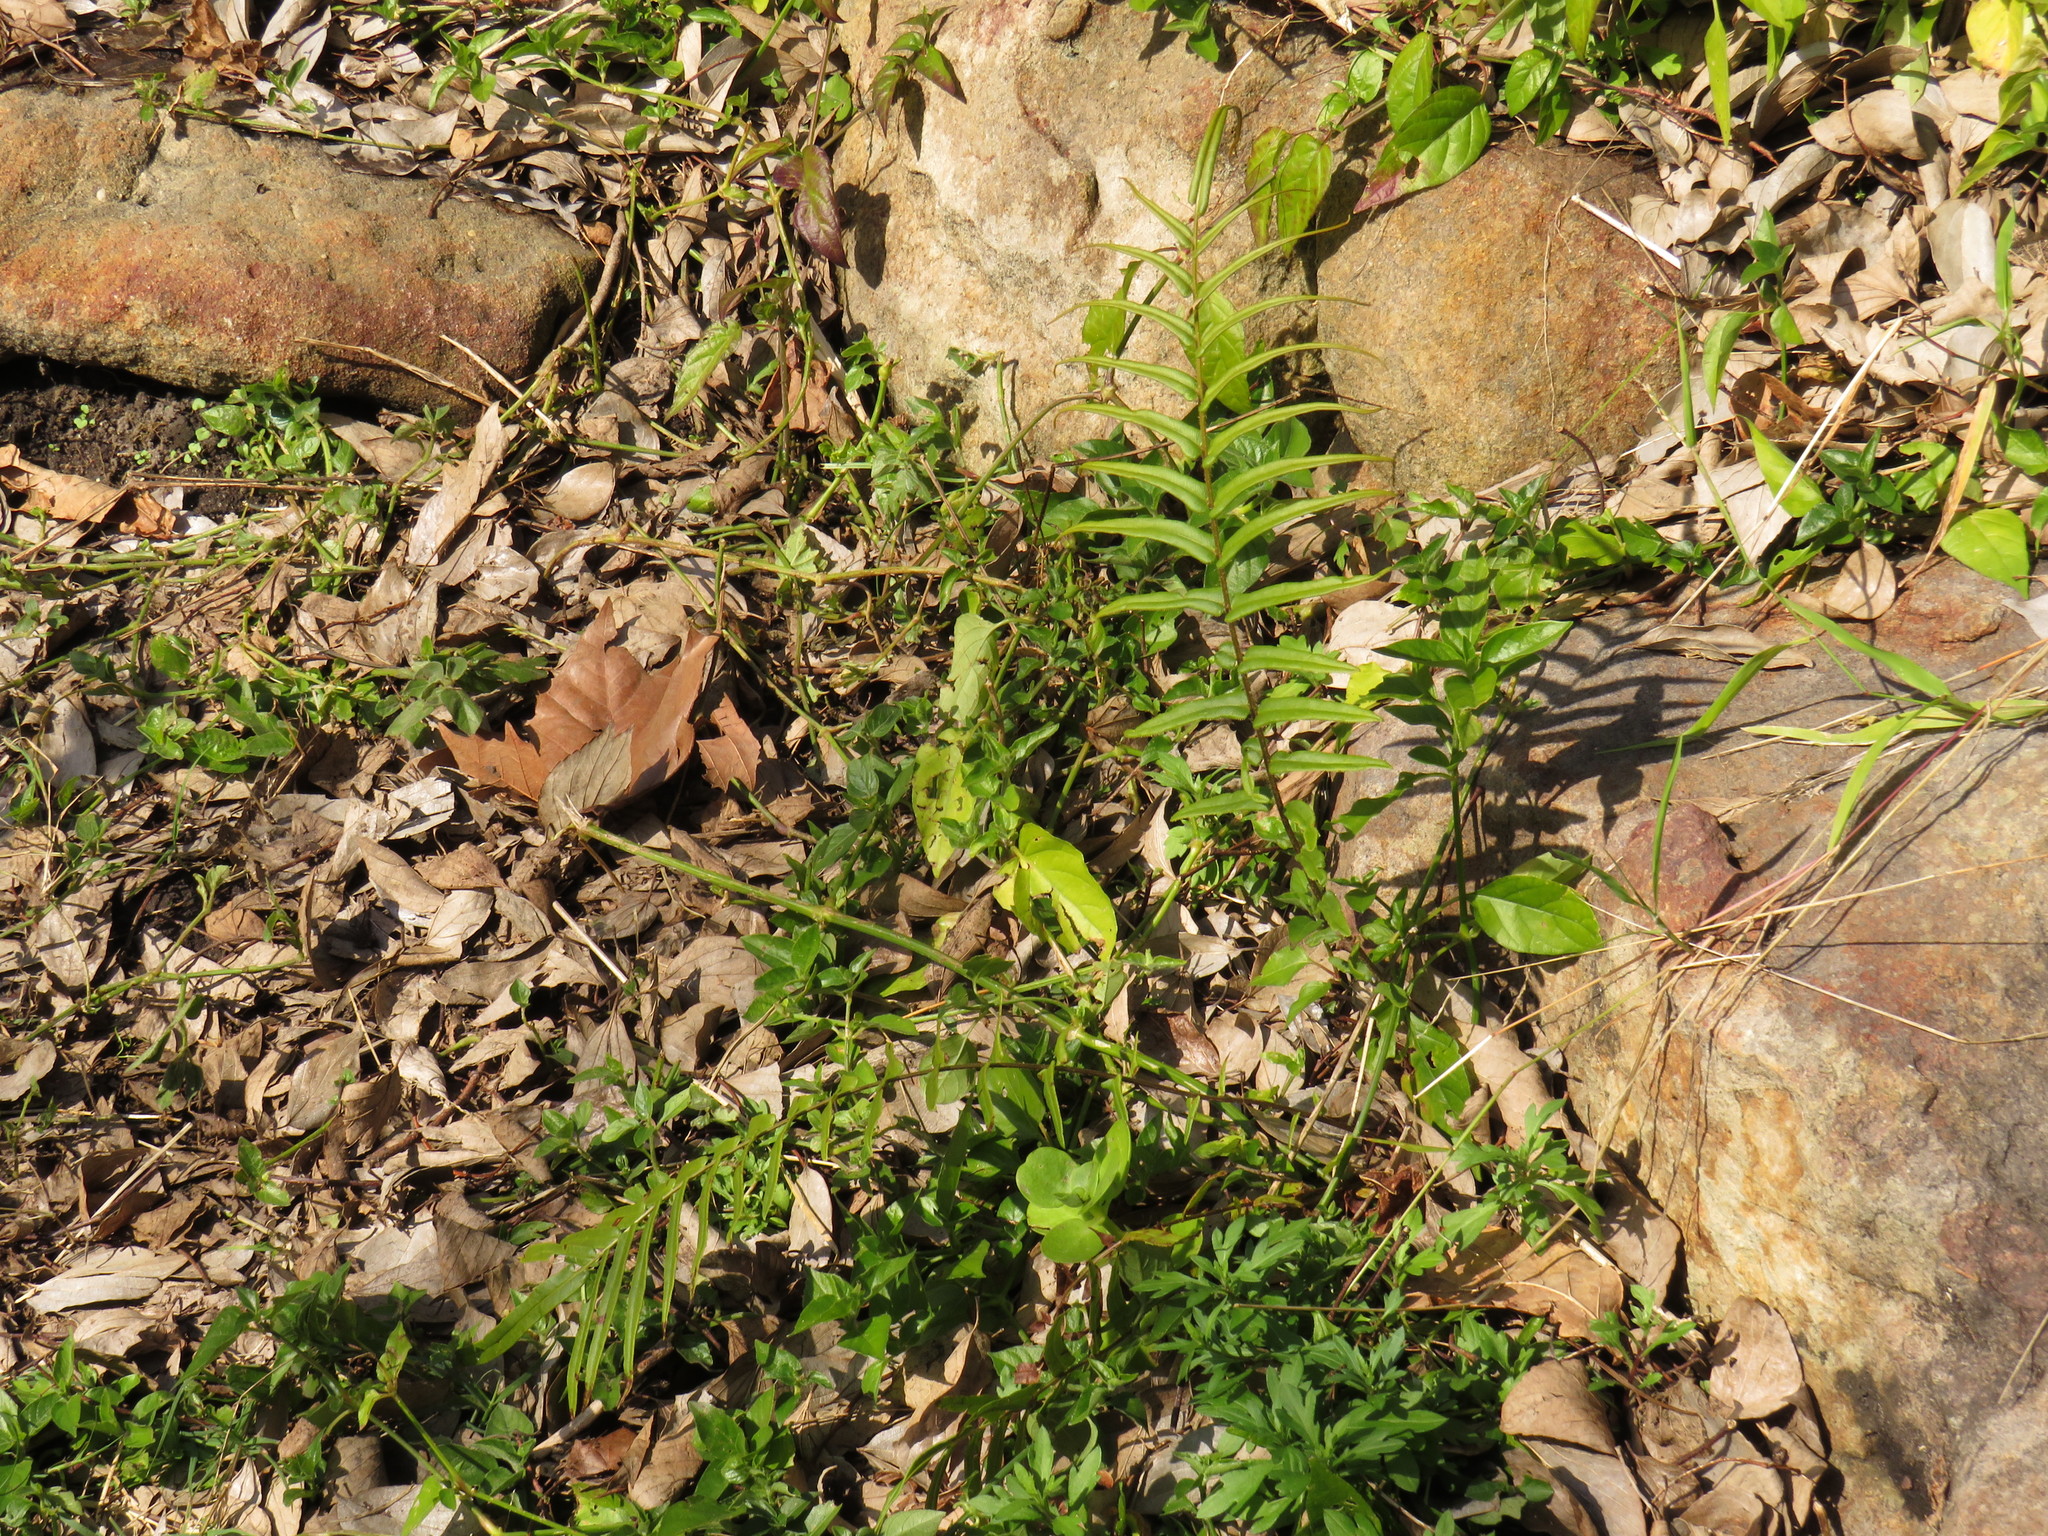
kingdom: Plantae
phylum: Tracheophyta
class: Polypodiopsida
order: Polypodiales
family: Pteridaceae
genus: Pteris
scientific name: Pteris vittata
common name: Ladder brake
